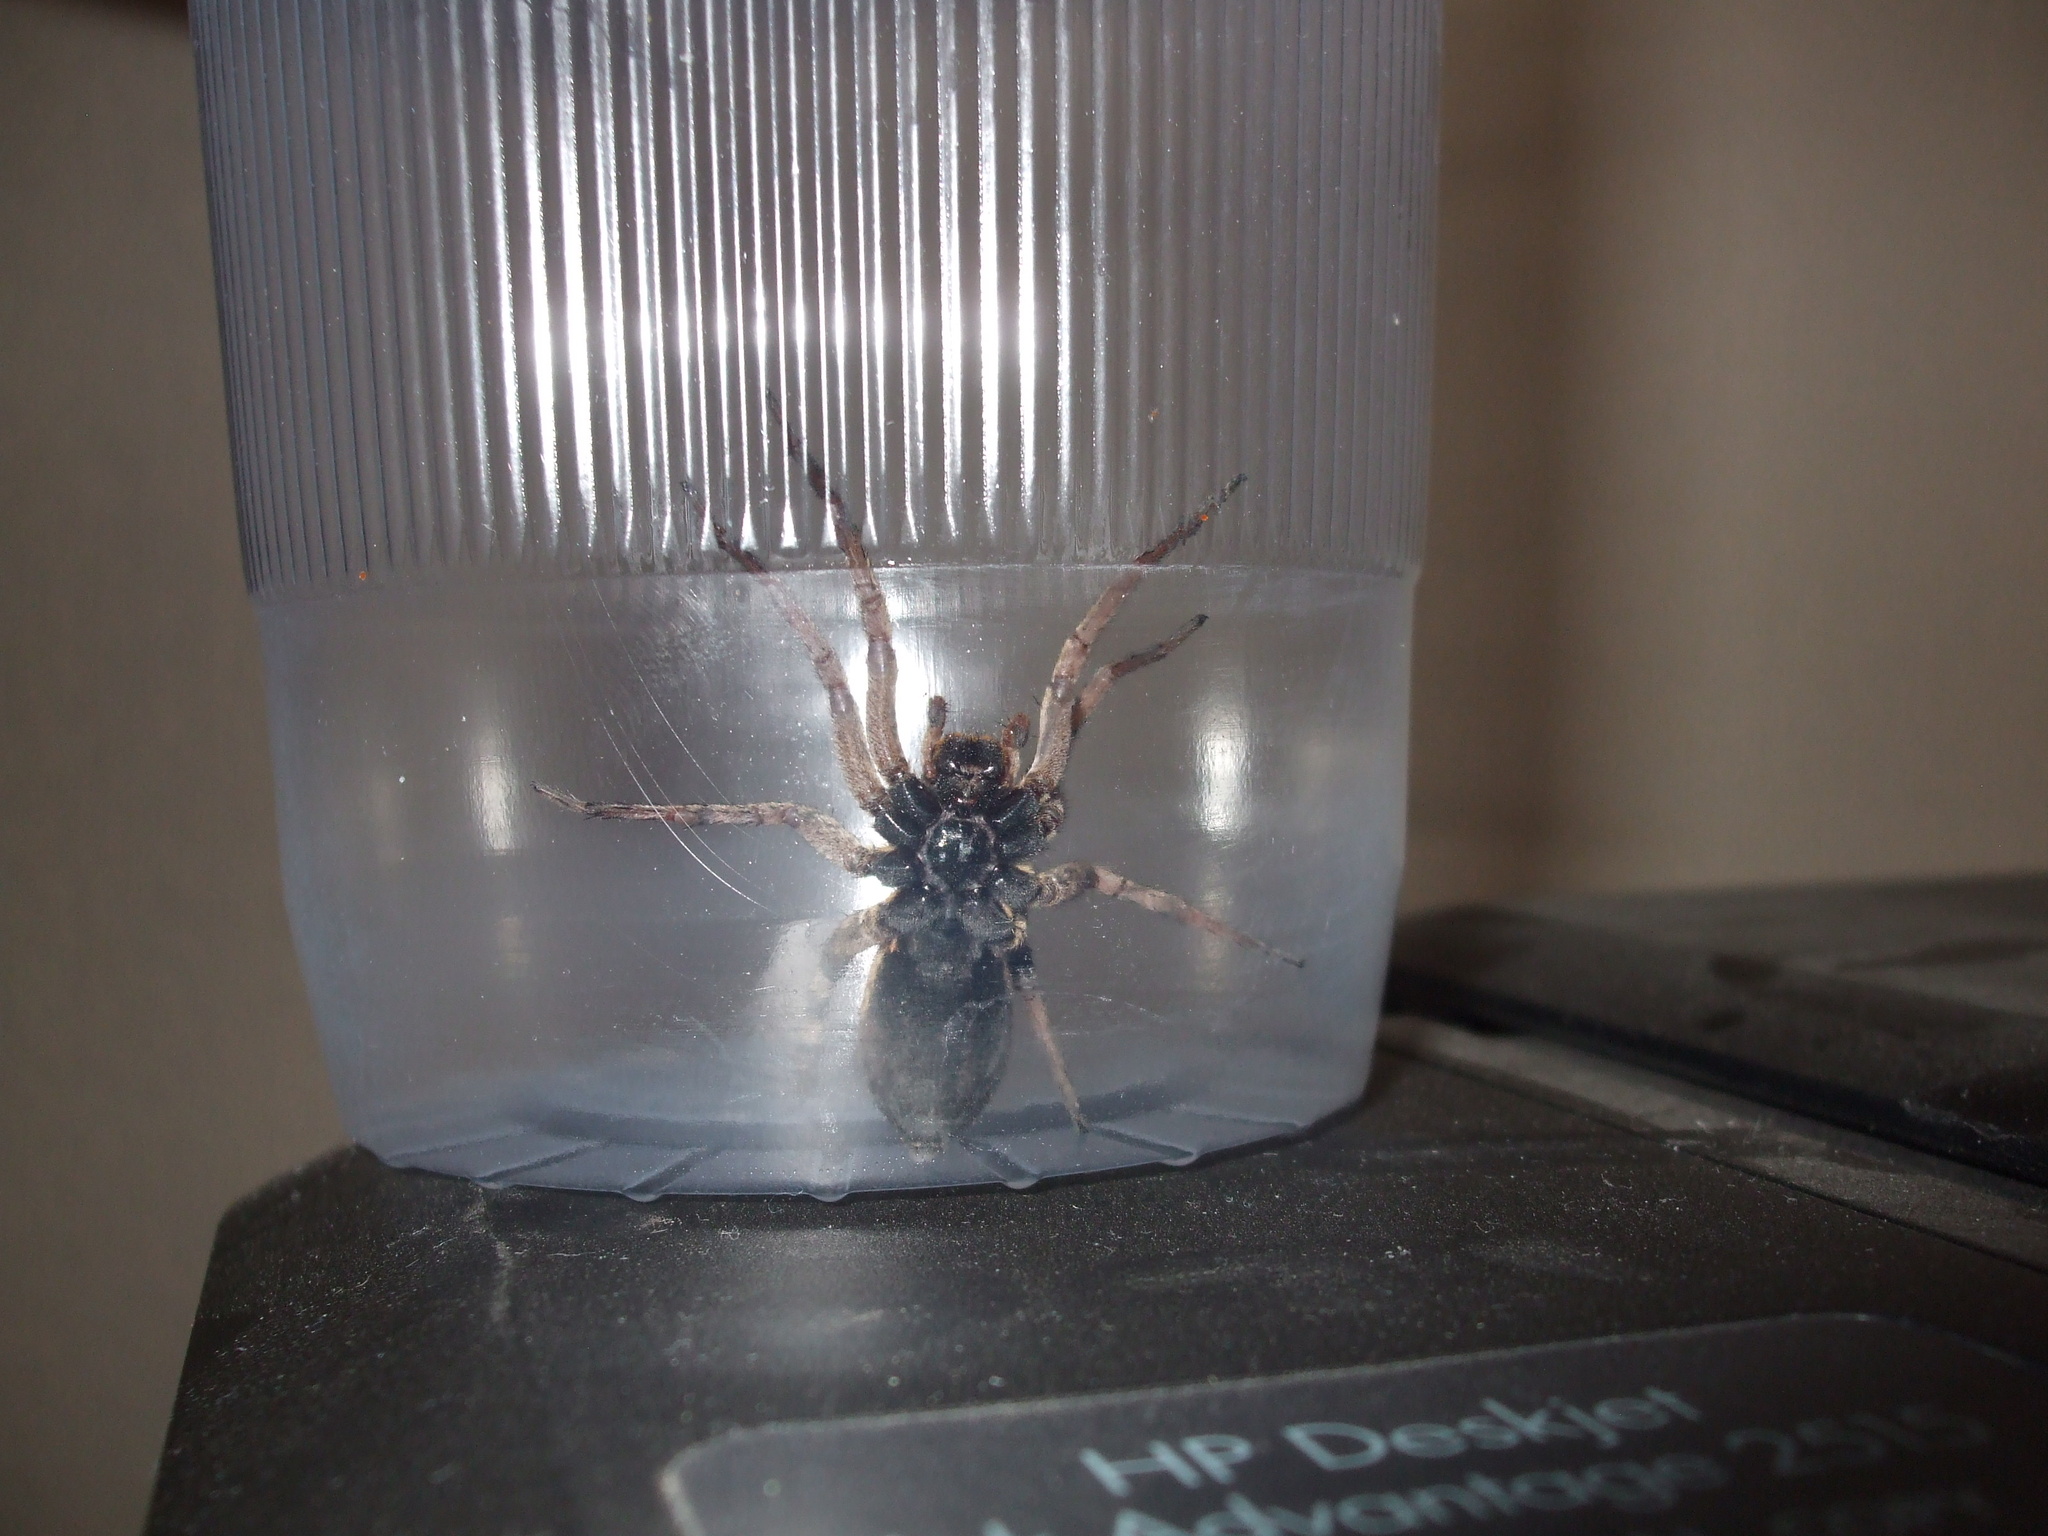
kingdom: Animalia
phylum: Arthropoda
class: Arachnida
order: Araneae
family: Lycosidae
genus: Hogna
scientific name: Hogna antelucana
